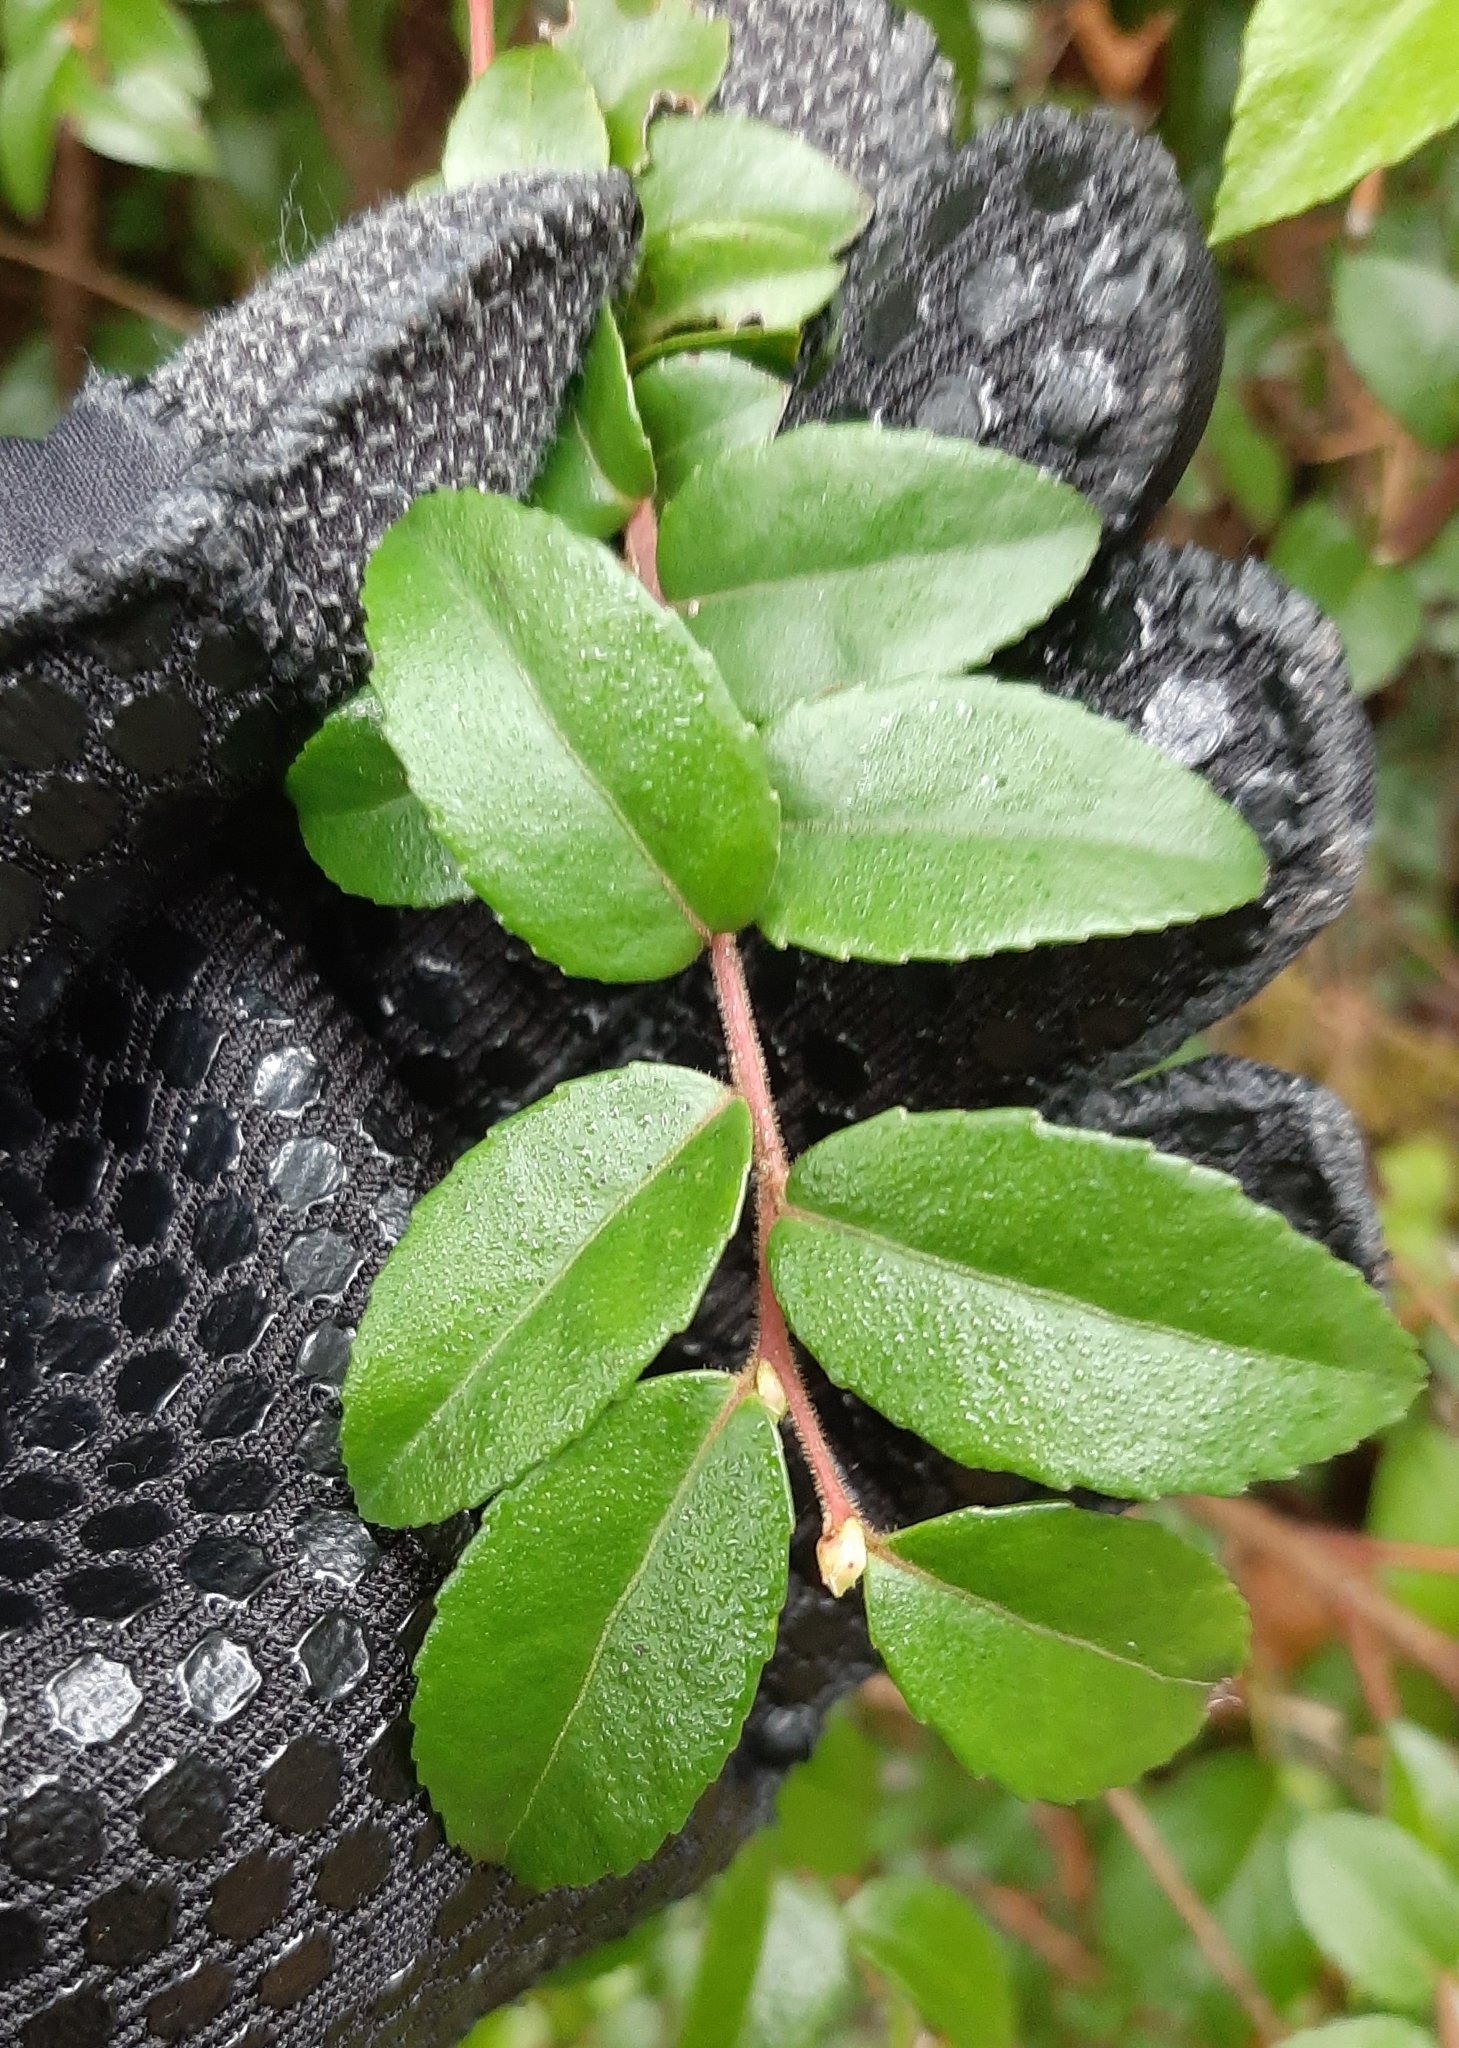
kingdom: Plantae
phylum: Tracheophyta
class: Magnoliopsida
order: Ericales
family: Ericaceae
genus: Vaccinium
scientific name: Vaccinium ovatum
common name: California-huckleberry
